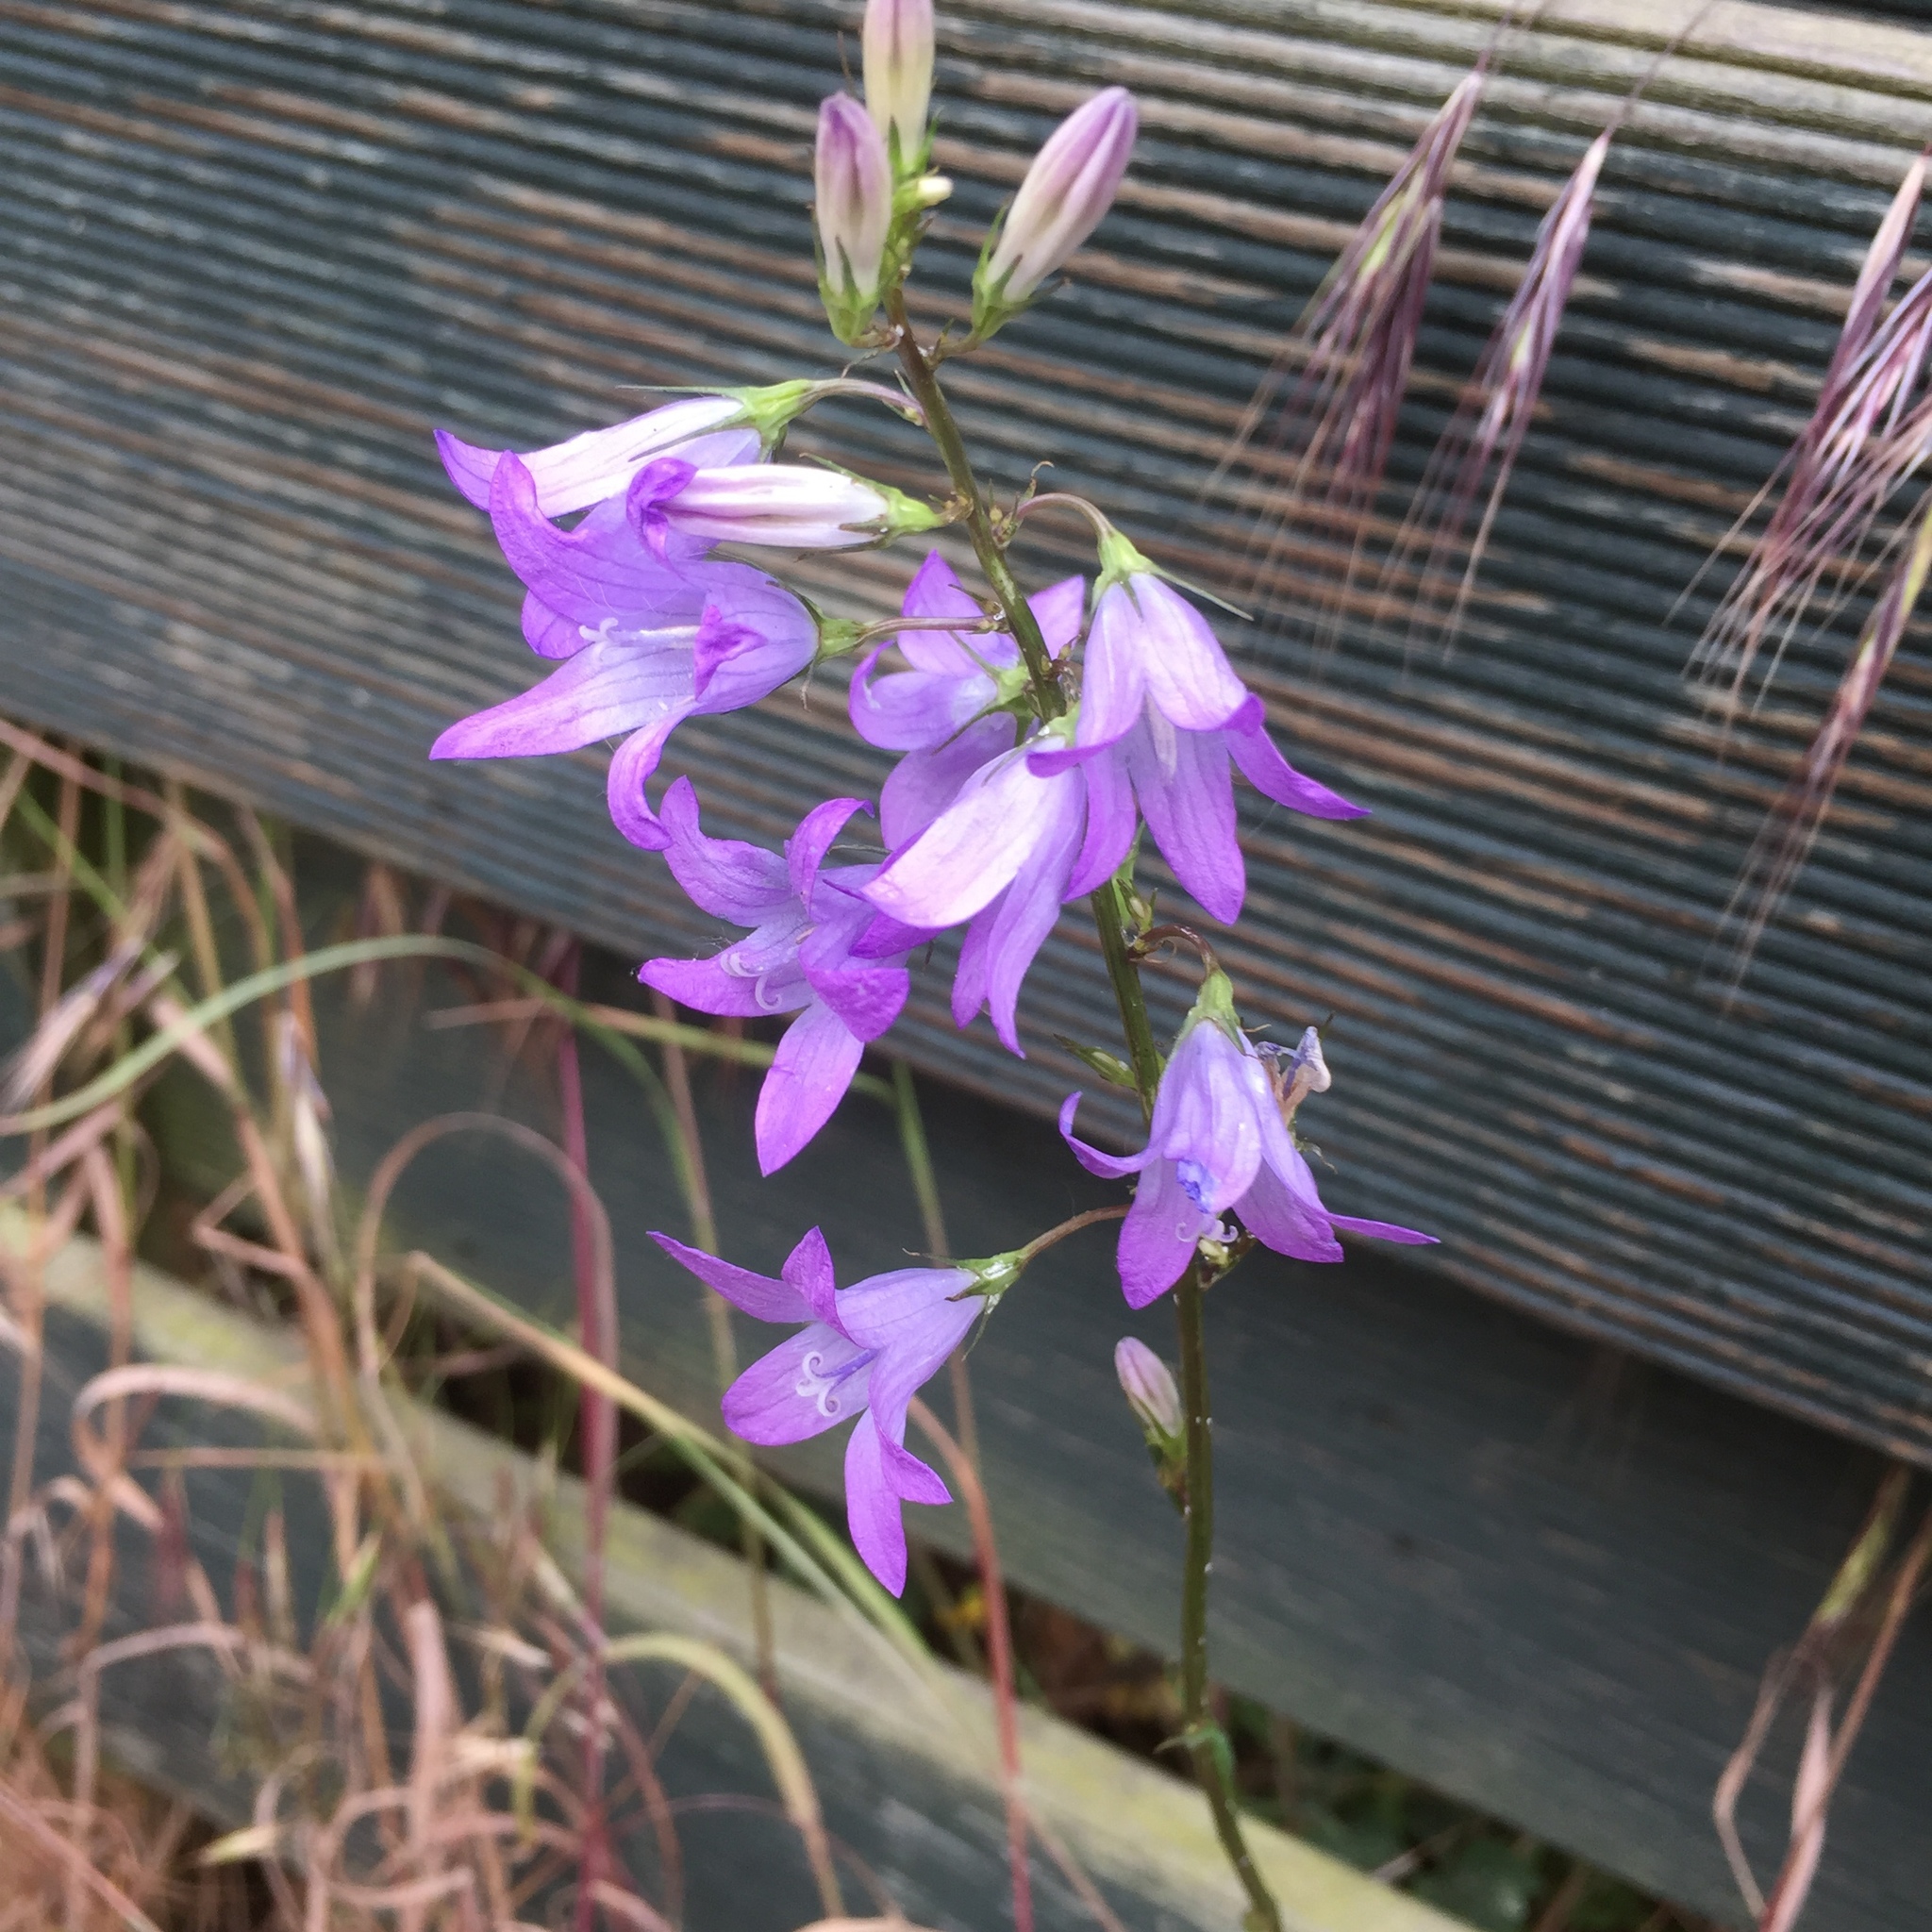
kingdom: Plantae
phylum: Tracheophyta
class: Magnoliopsida
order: Asterales
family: Campanulaceae
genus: Campanula
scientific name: Campanula rapunculus
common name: Rampion bellflower
